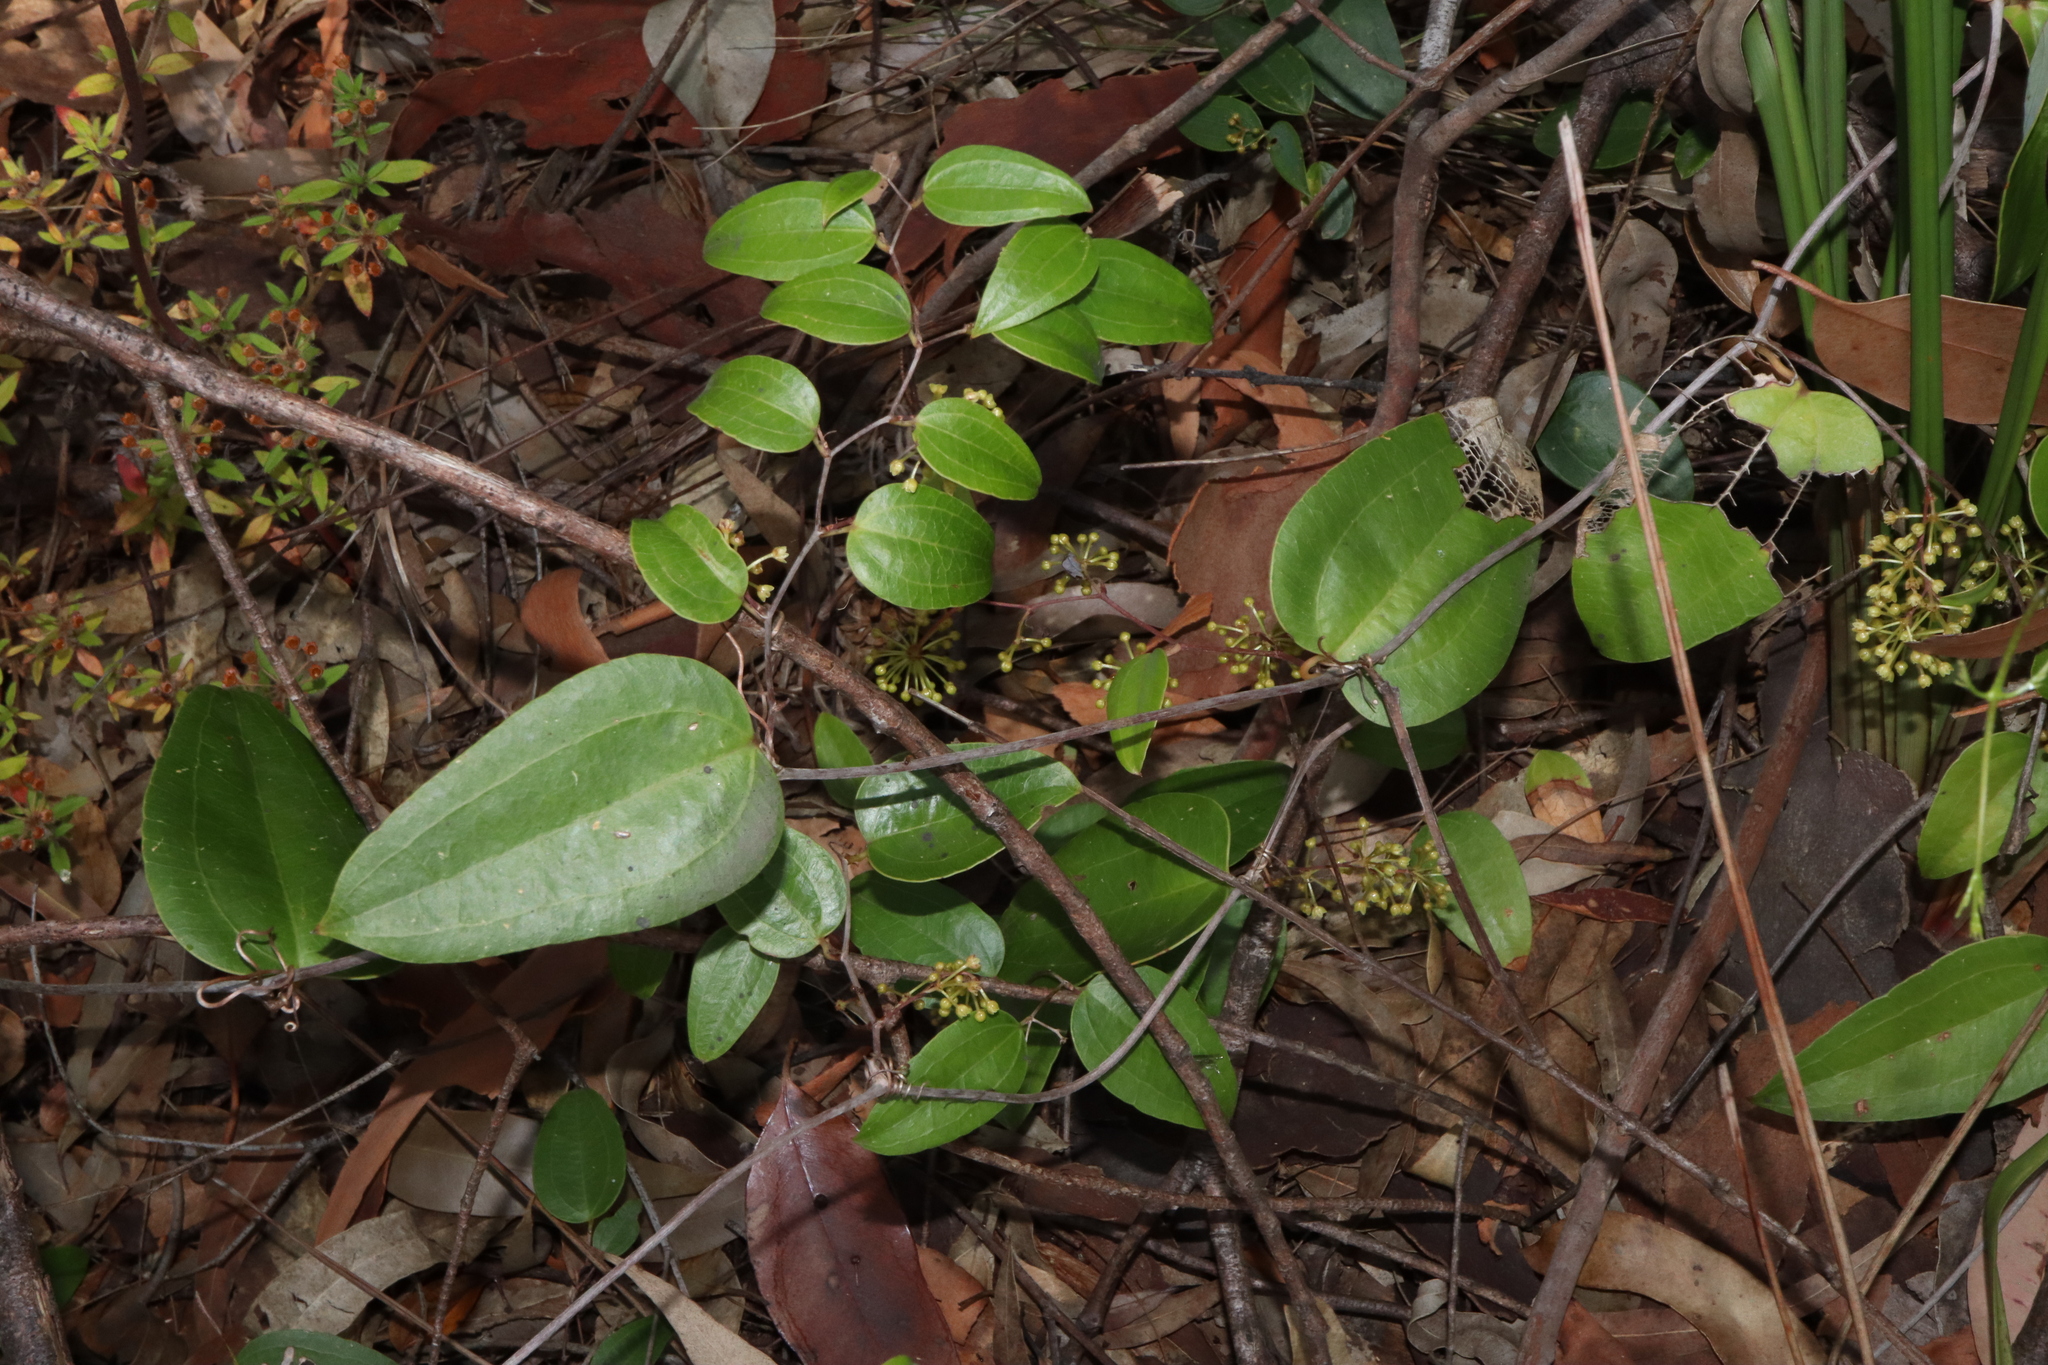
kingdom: Plantae
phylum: Tracheophyta
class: Liliopsida
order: Liliales
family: Smilacaceae
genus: Smilax
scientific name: Smilax glyciphylla
